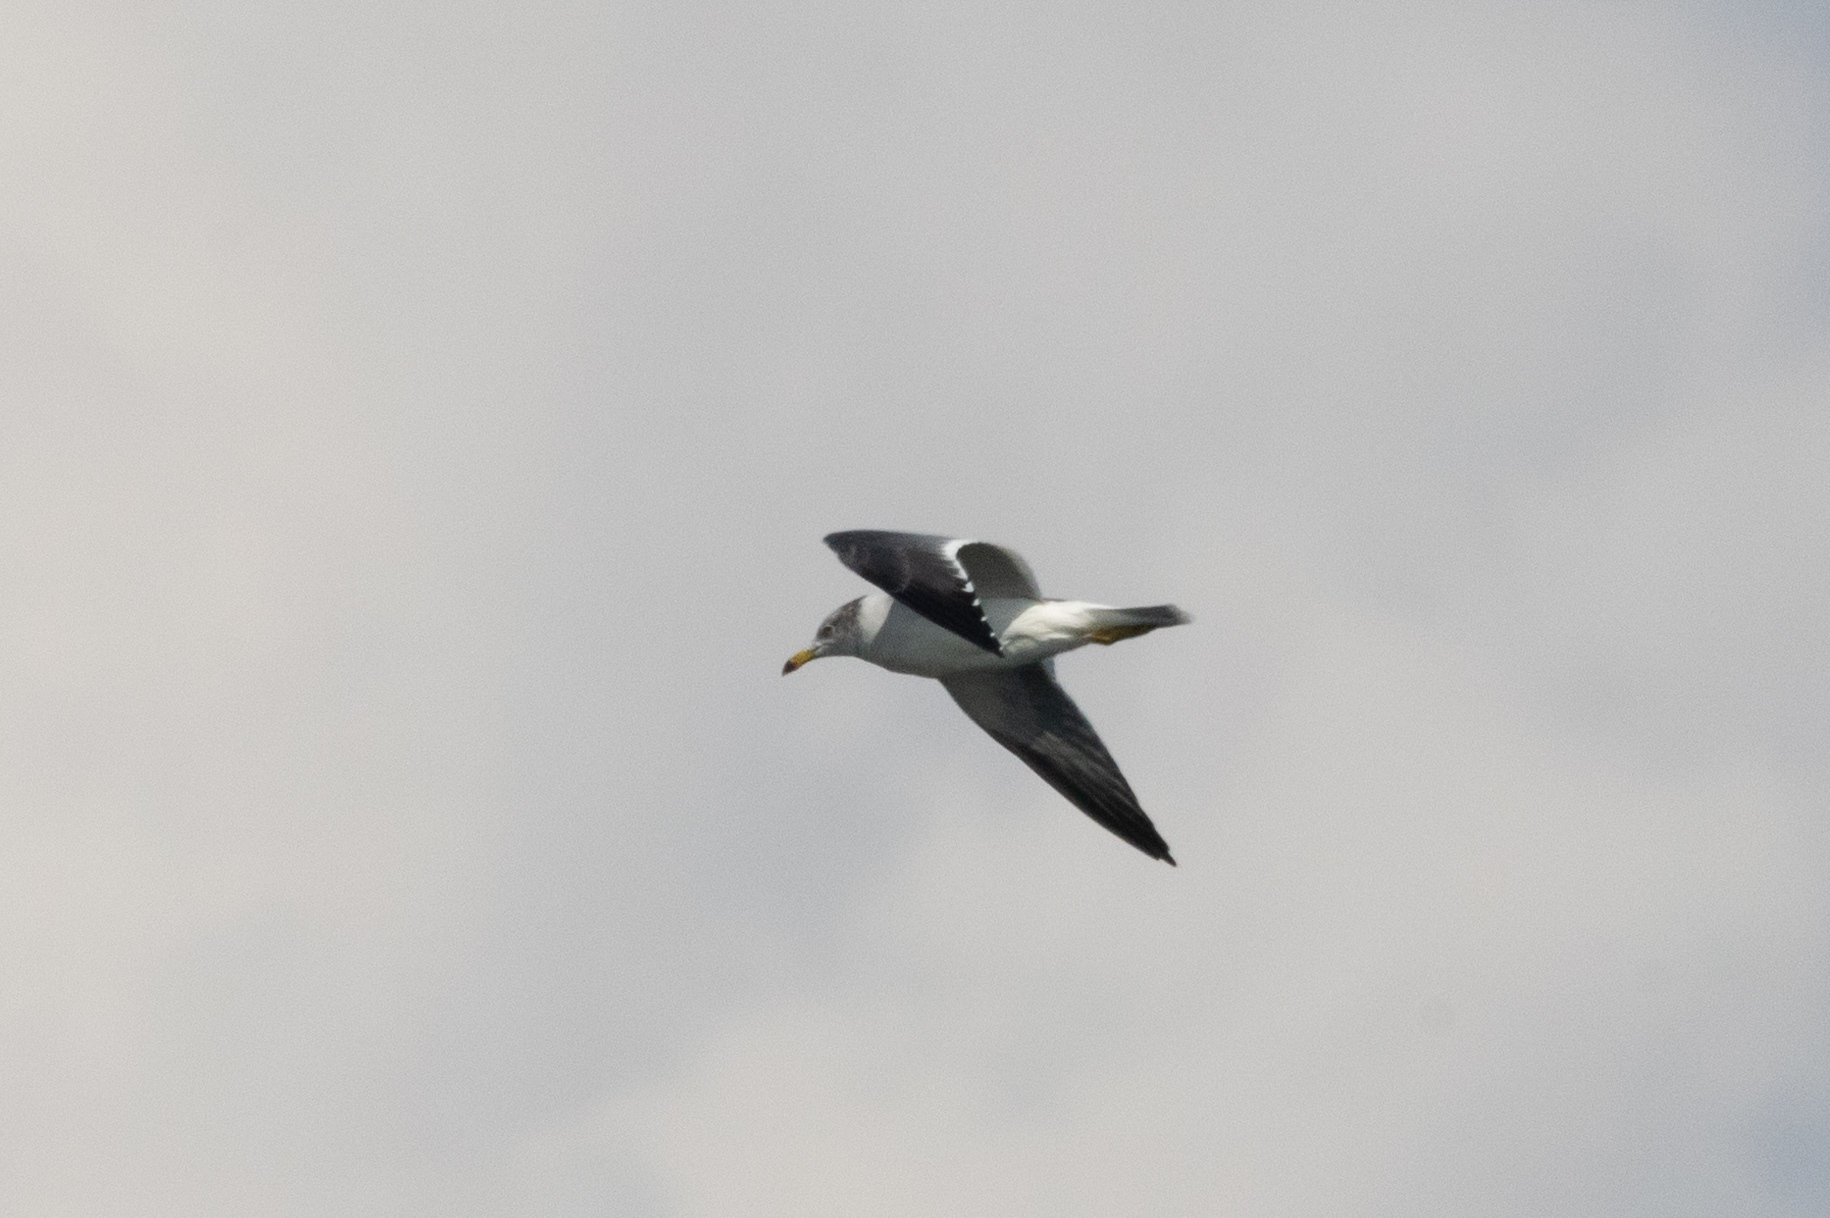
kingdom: Animalia
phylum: Chordata
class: Aves
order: Charadriiformes
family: Laridae
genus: Larus
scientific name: Larus crassirostris
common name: Black-tailed gull
